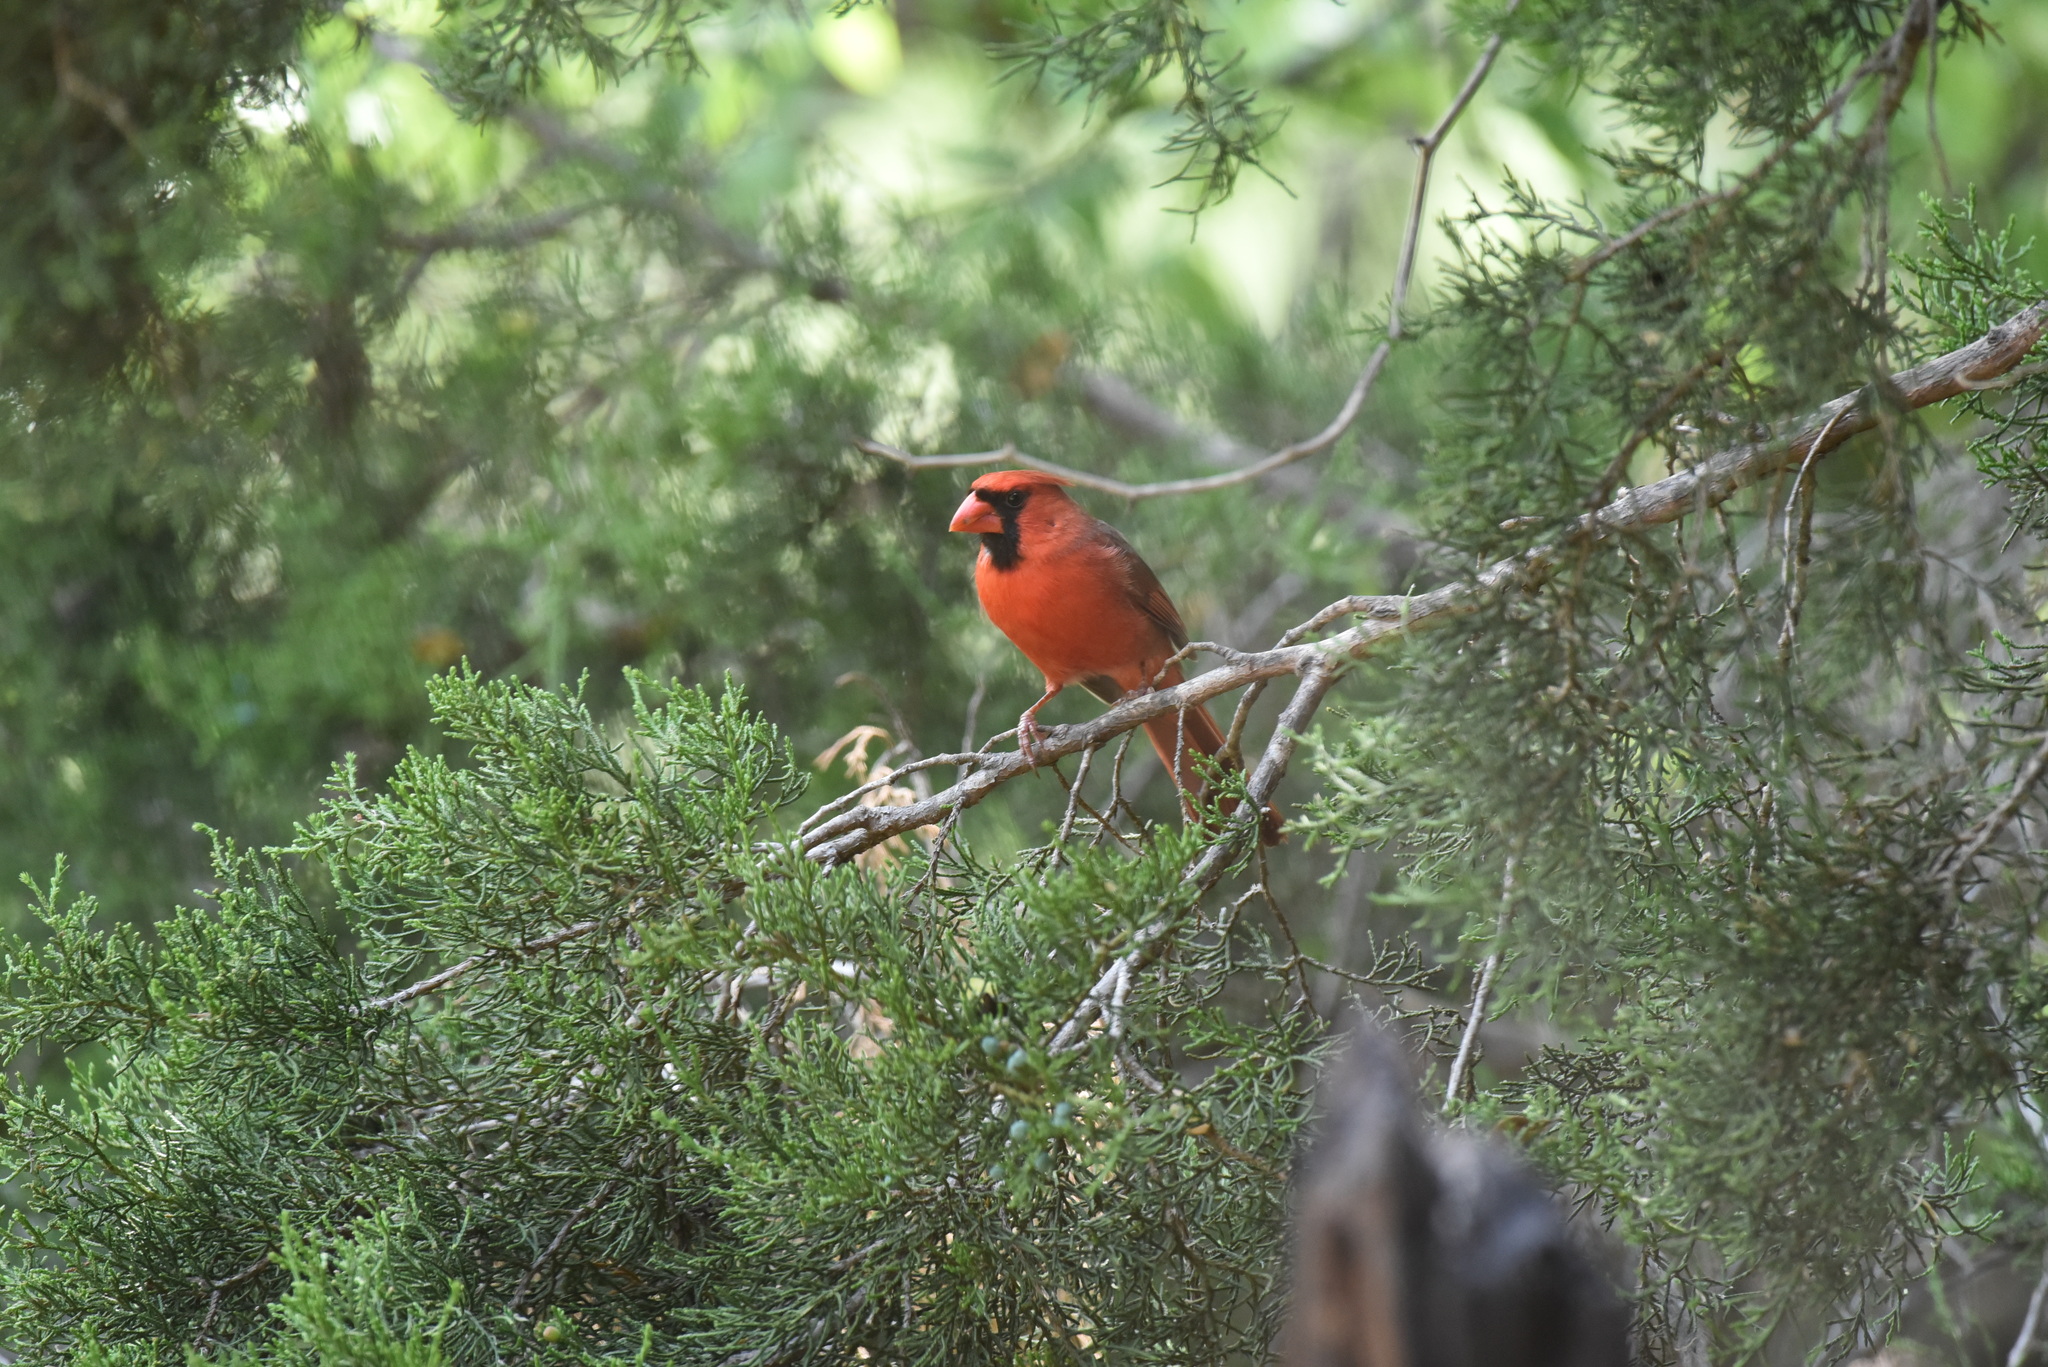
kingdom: Animalia
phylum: Chordata
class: Aves
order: Passeriformes
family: Cardinalidae
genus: Cardinalis
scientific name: Cardinalis cardinalis
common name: Northern cardinal
